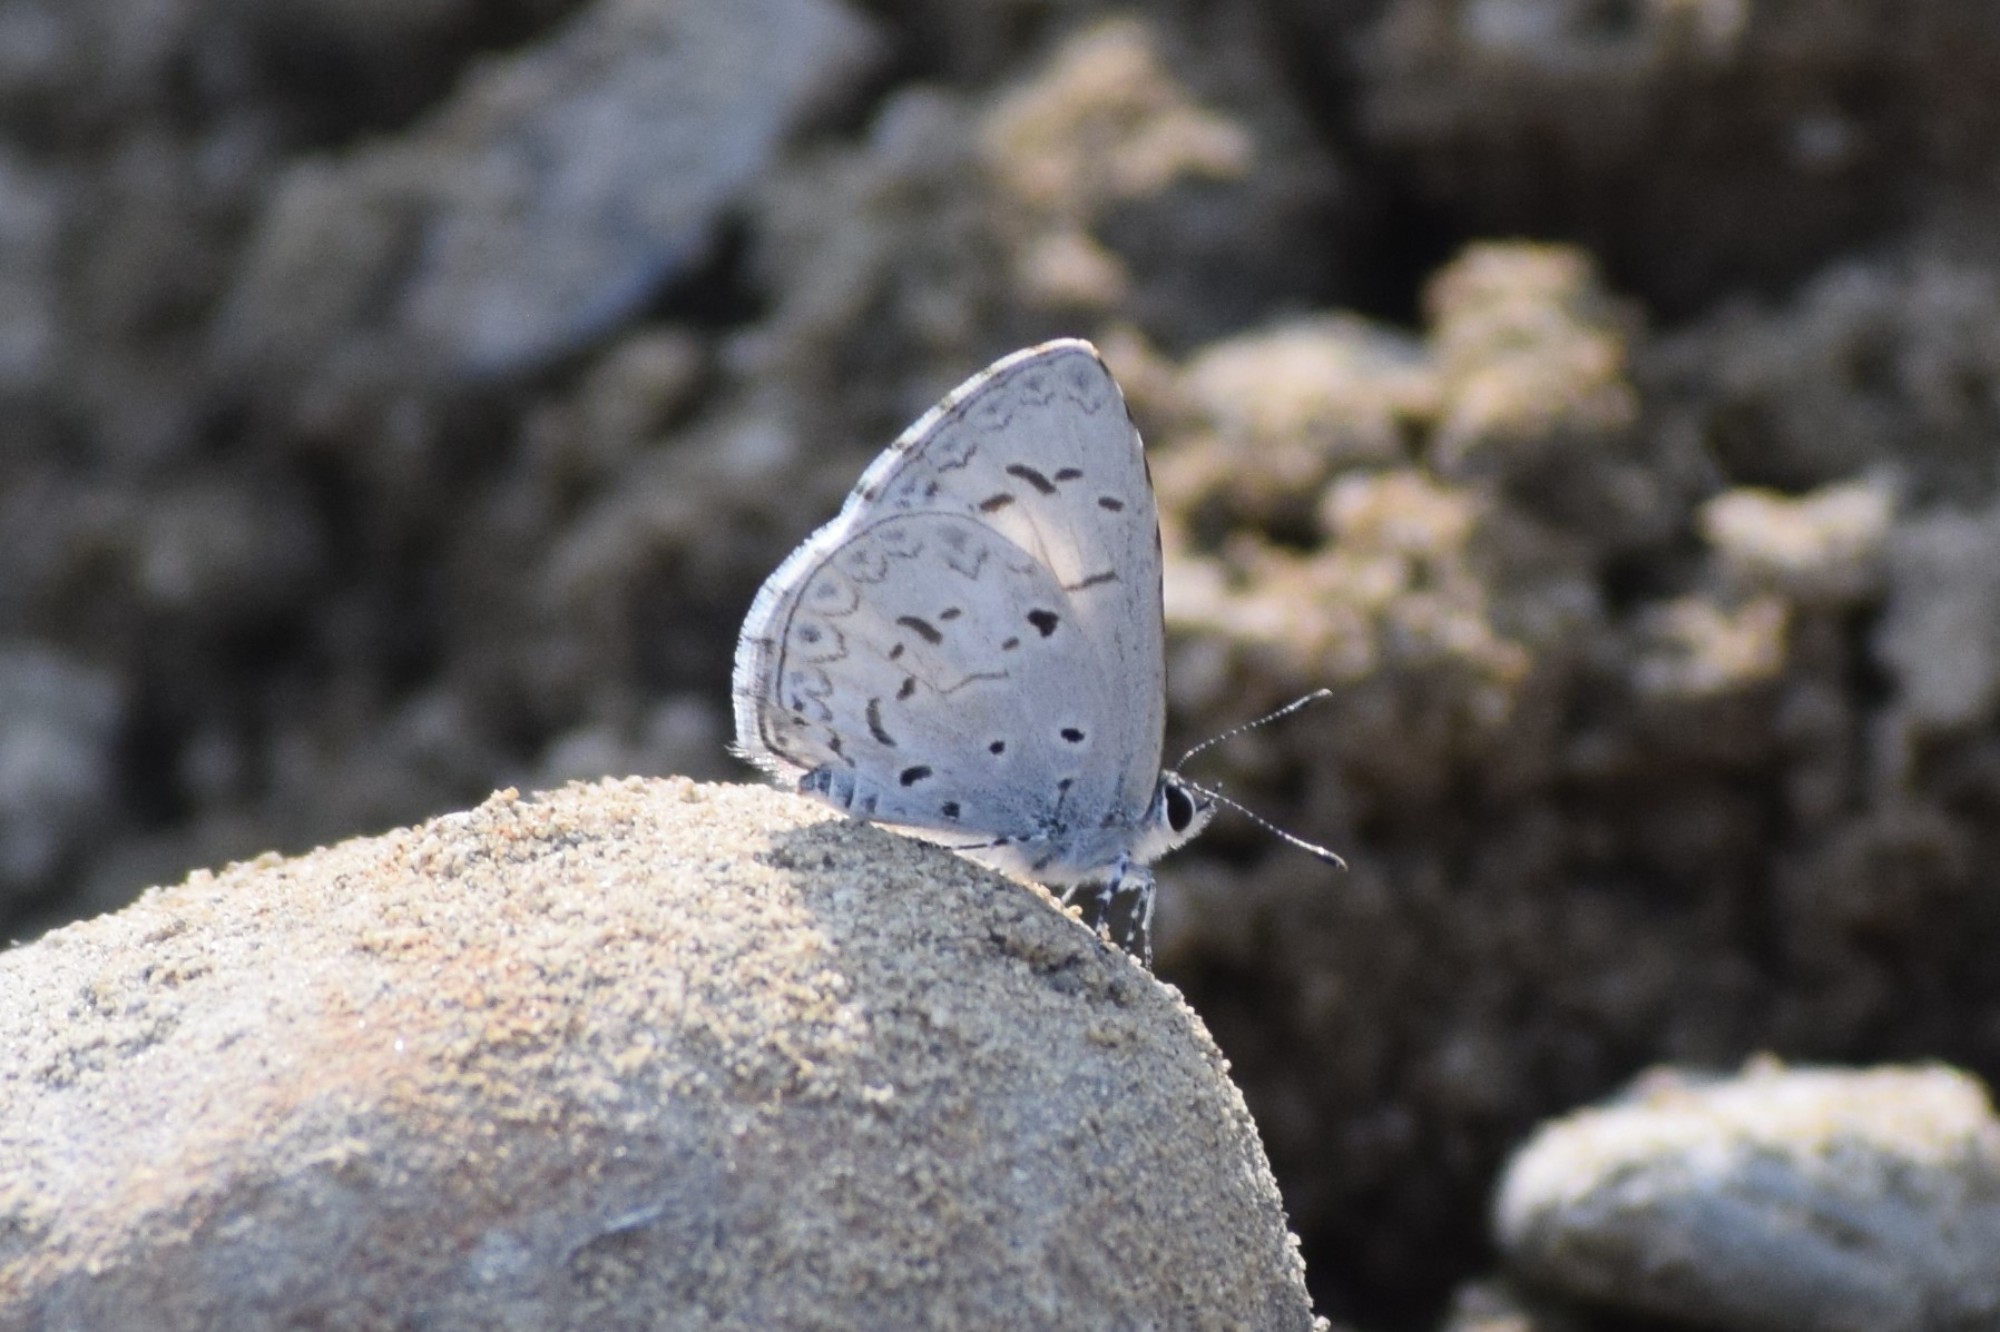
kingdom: Animalia
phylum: Arthropoda
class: Insecta
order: Lepidoptera
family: Lycaenidae
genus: Acytolepis
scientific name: Acytolepis puspa
